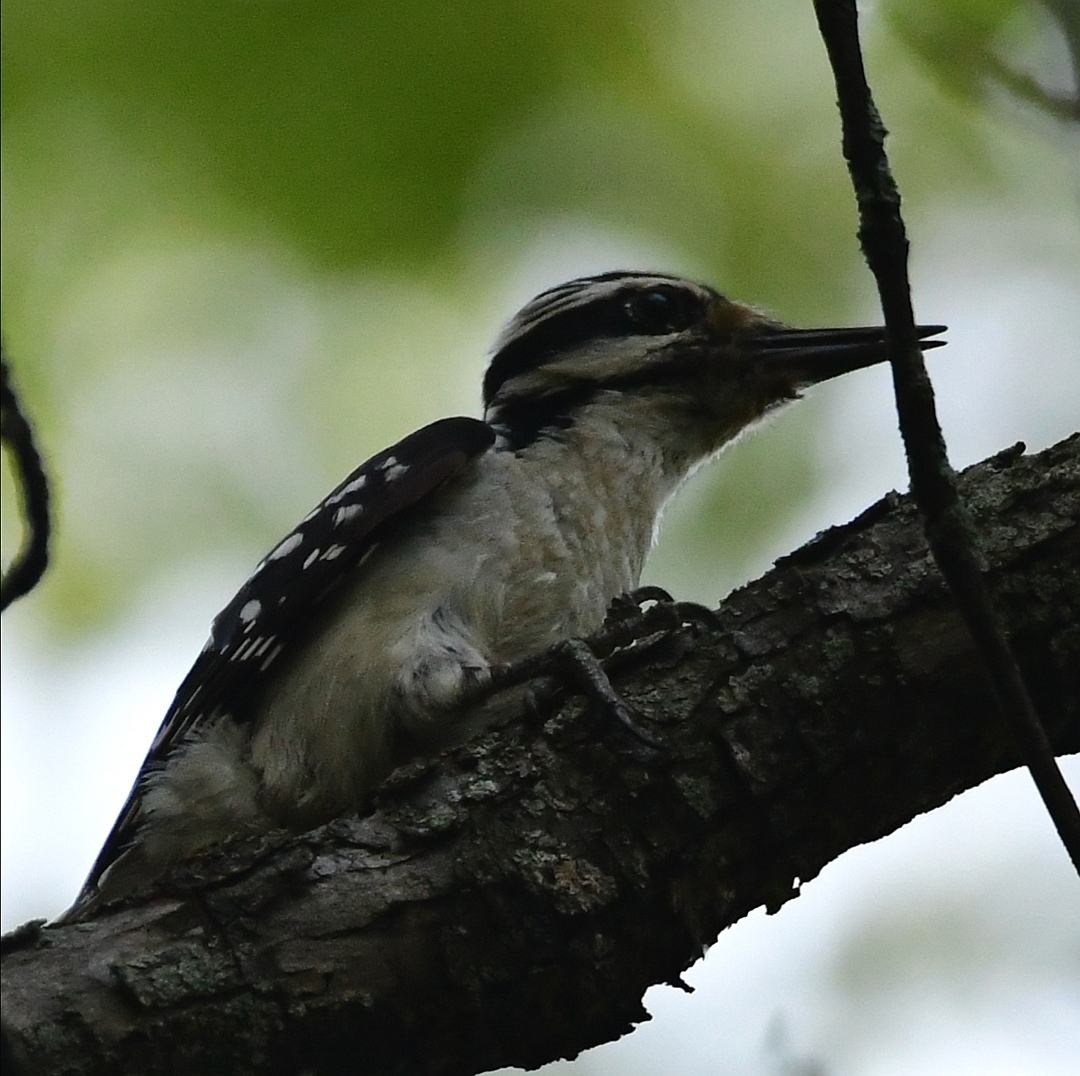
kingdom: Animalia
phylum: Chordata
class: Aves
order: Piciformes
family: Picidae
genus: Leuconotopicus
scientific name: Leuconotopicus villosus
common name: Hairy woodpecker
